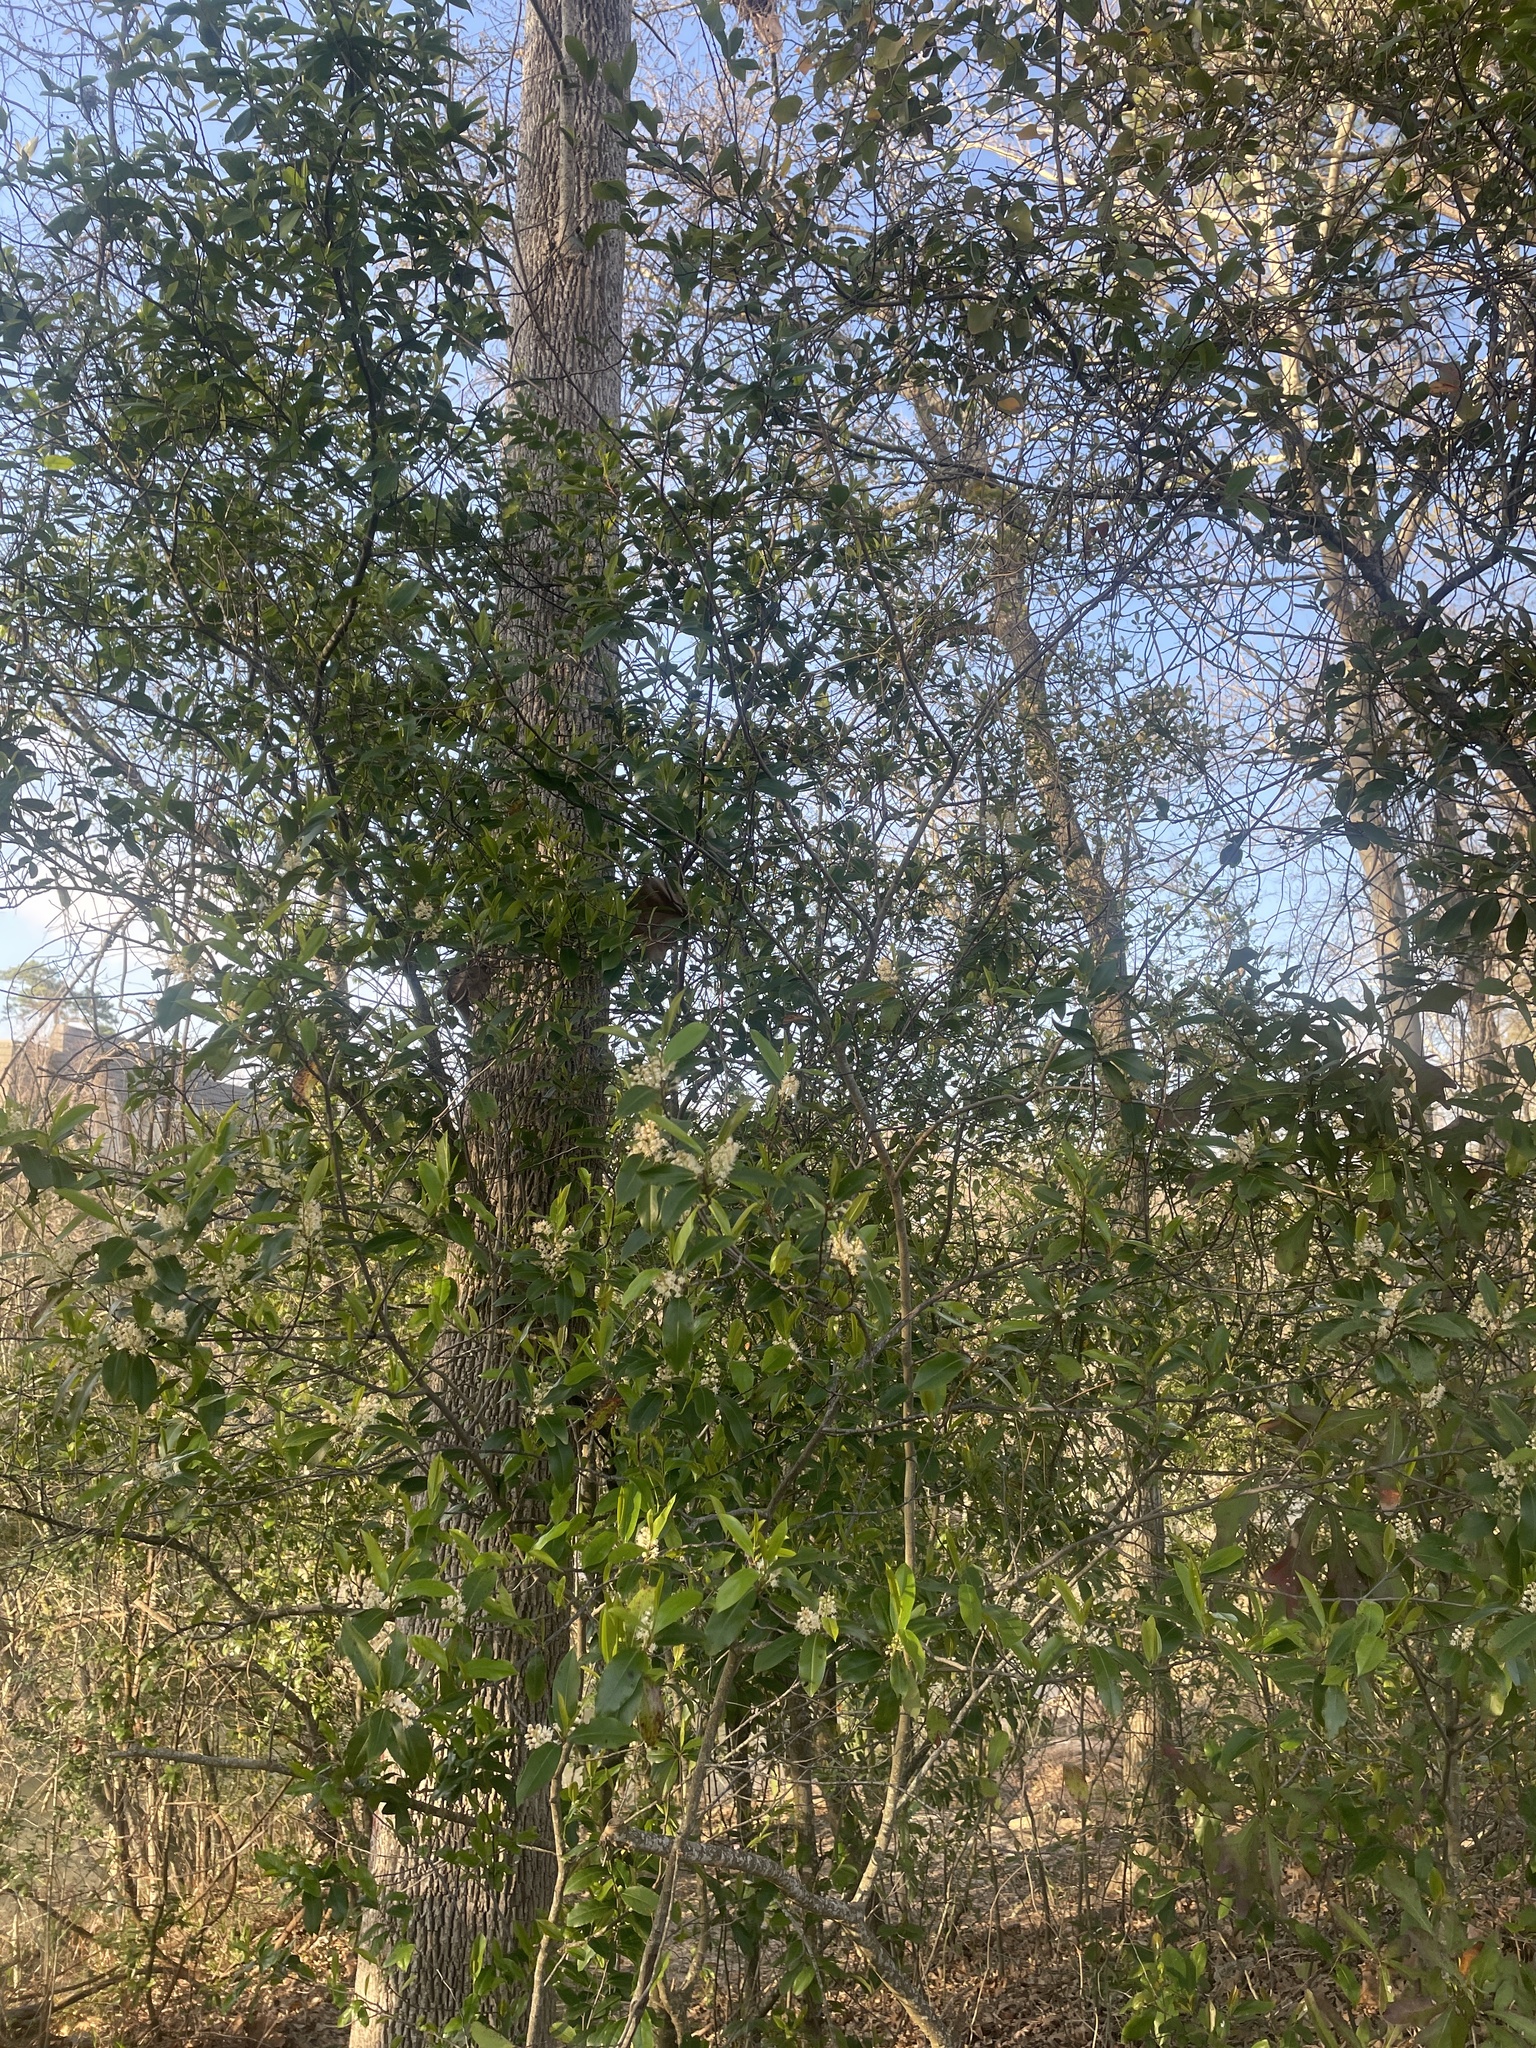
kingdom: Plantae
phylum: Tracheophyta
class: Magnoliopsida
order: Rosales
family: Rosaceae
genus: Prunus
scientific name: Prunus caroliniana
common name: Carolina laurel cherry
